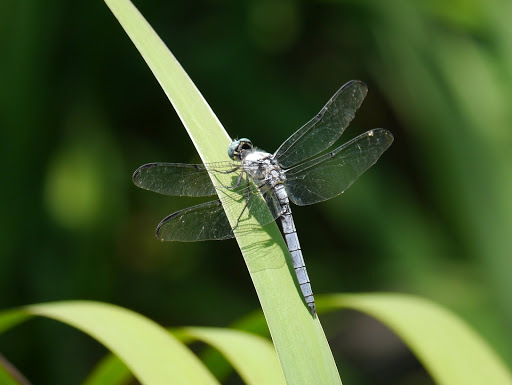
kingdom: Animalia
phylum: Arthropoda
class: Insecta
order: Odonata
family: Libellulidae
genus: Libellula
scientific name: Libellula vibrans
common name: Great blue skimmer
